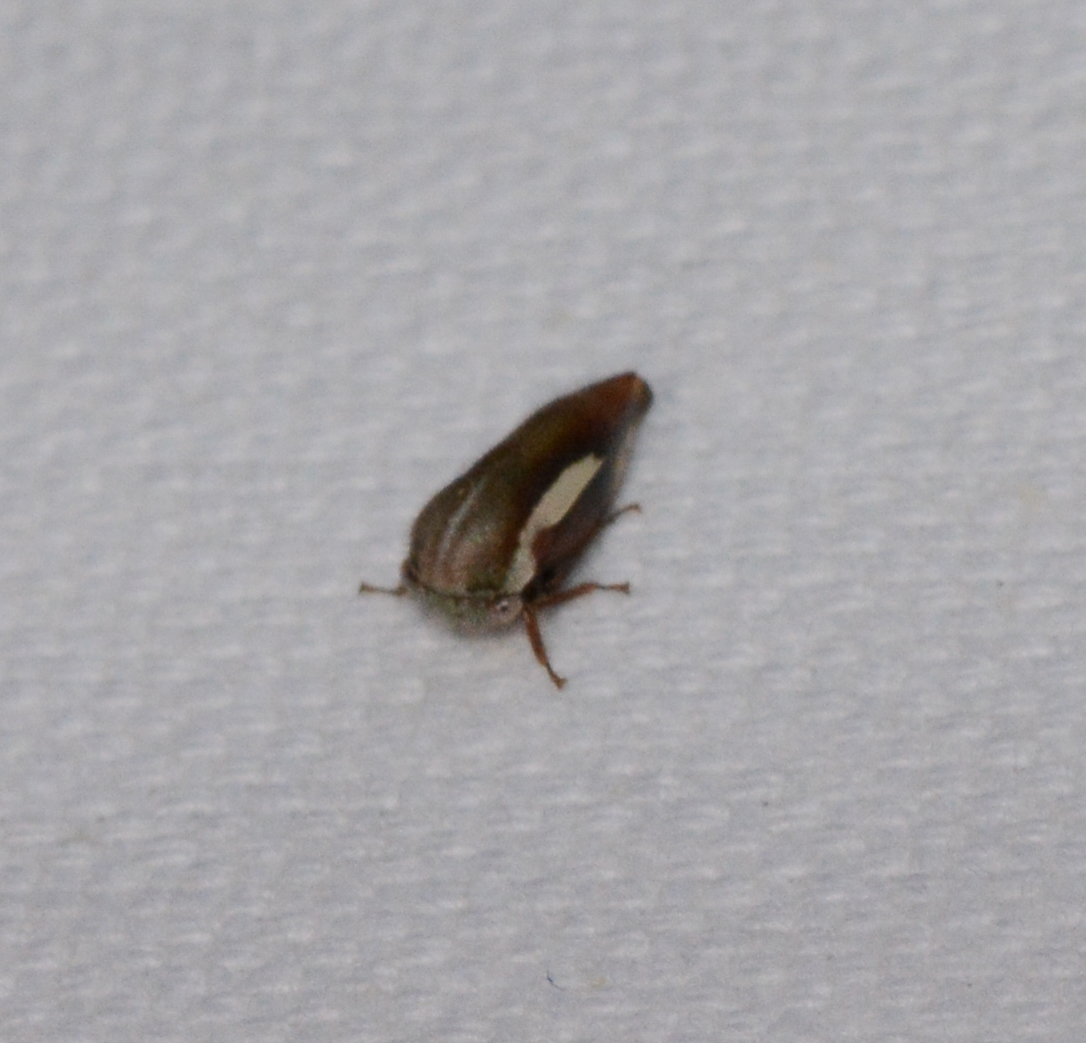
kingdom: Animalia
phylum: Arthropoda
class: Insecta
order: Hemiptera
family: Membracidae
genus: Ophiderma
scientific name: Ophiderma flavicephala
